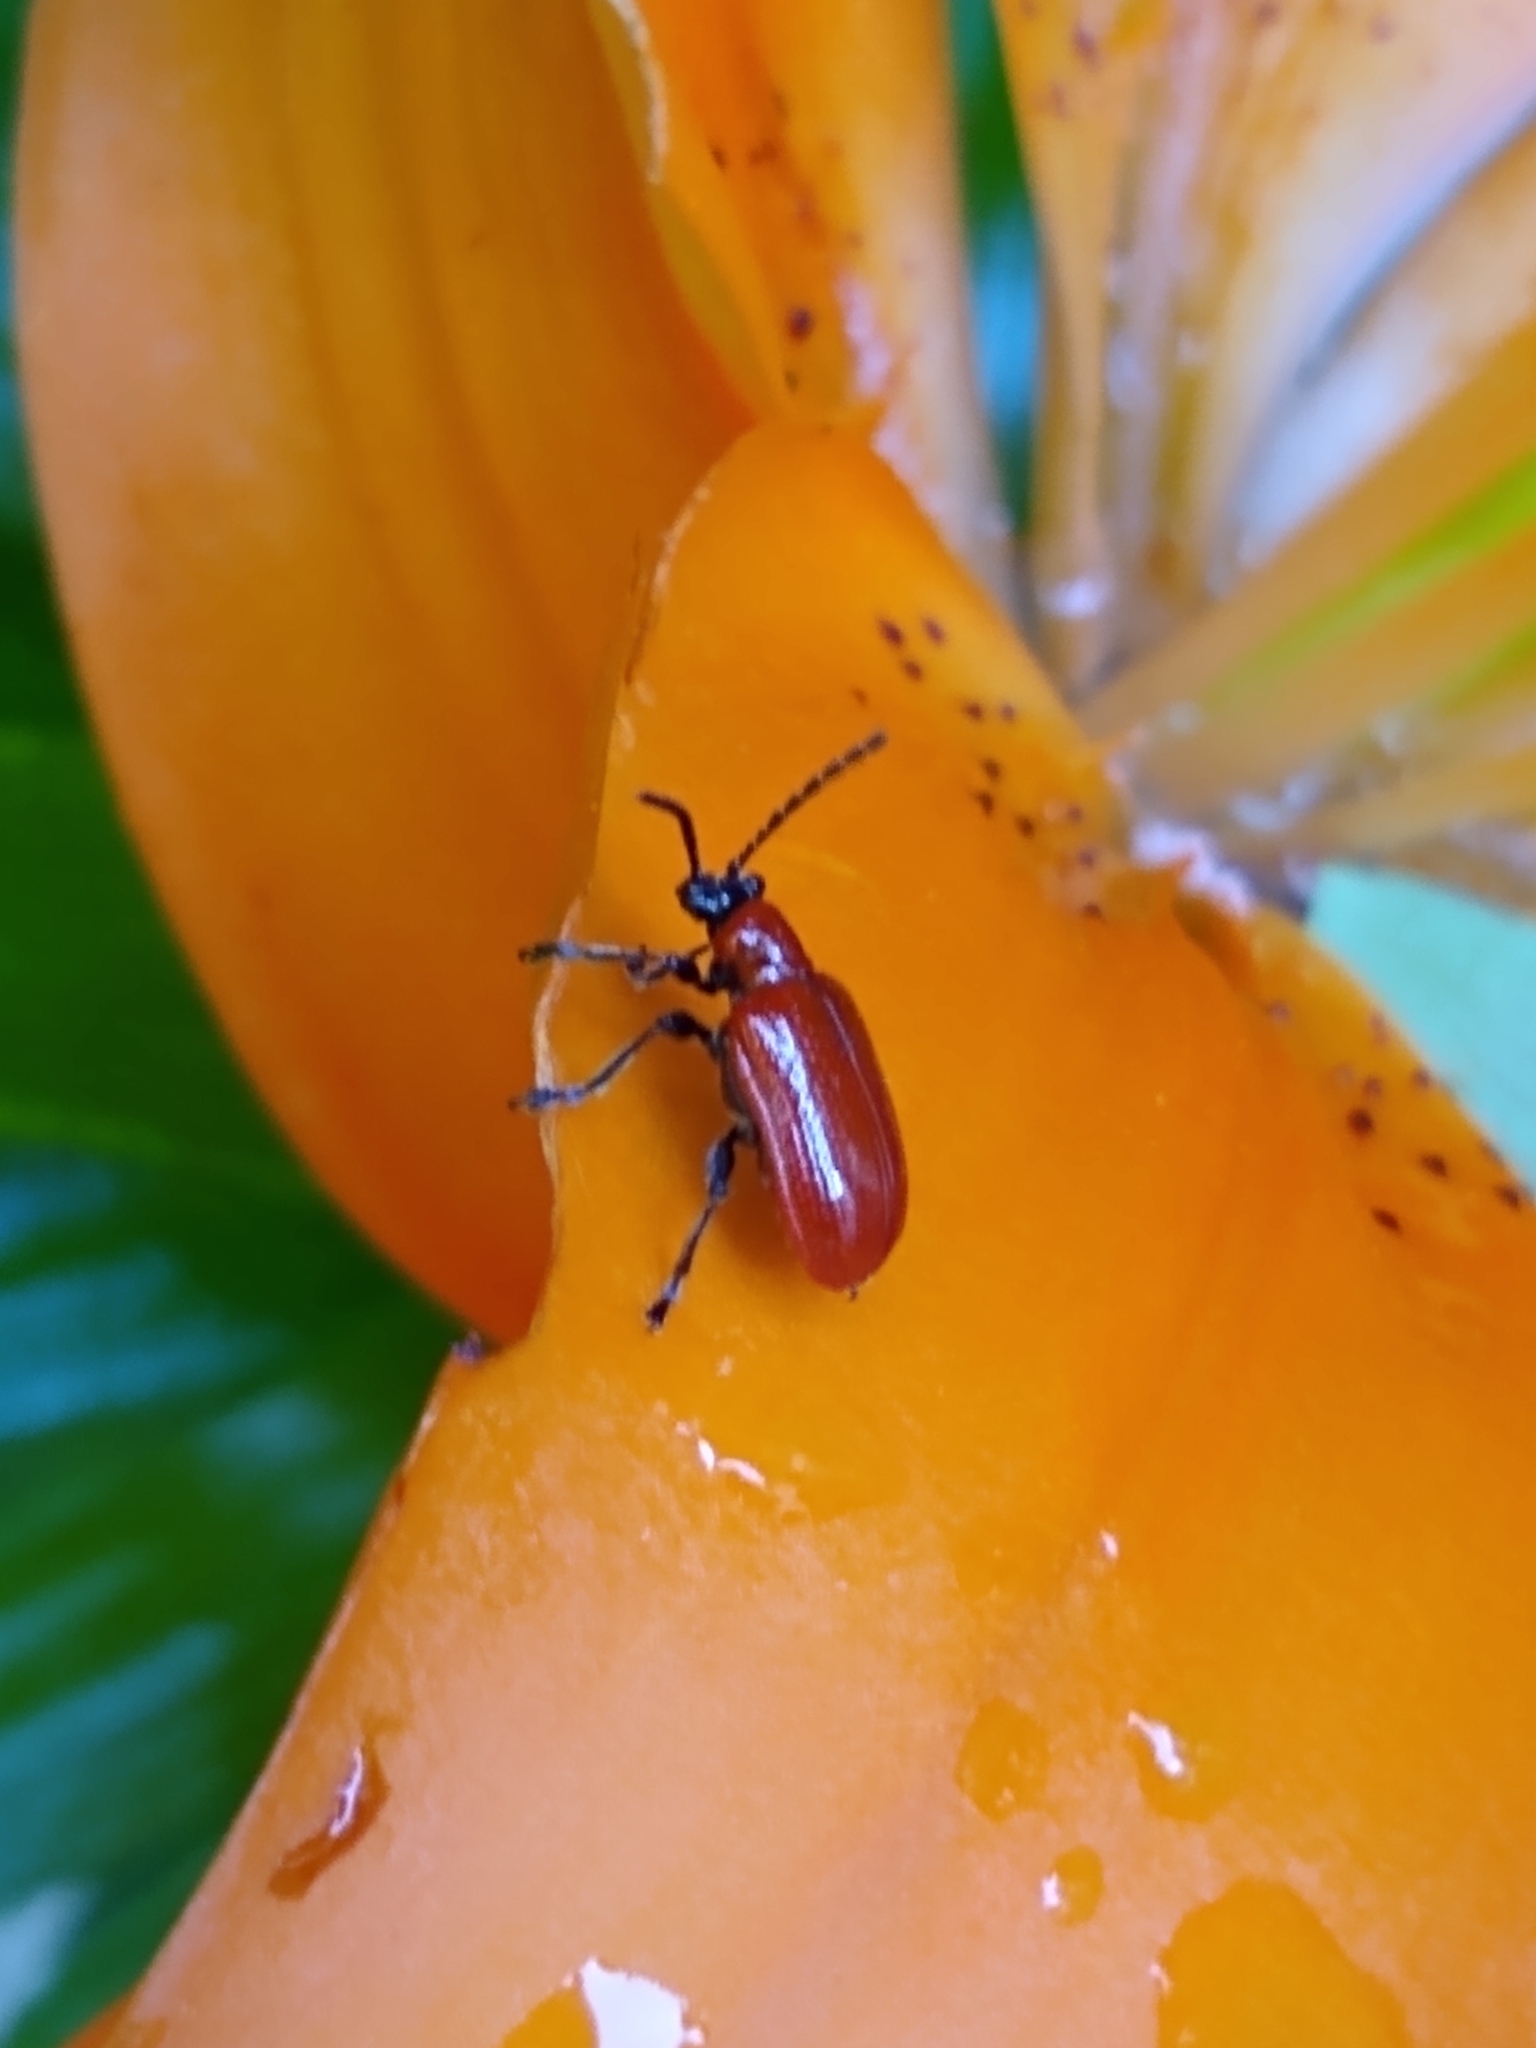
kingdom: Animalia
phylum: Arthropoda
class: Insecta
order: Coleoptera
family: Chrysomelidae
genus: Lilioceris
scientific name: Lilioceris lilii
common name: Lily beetle
